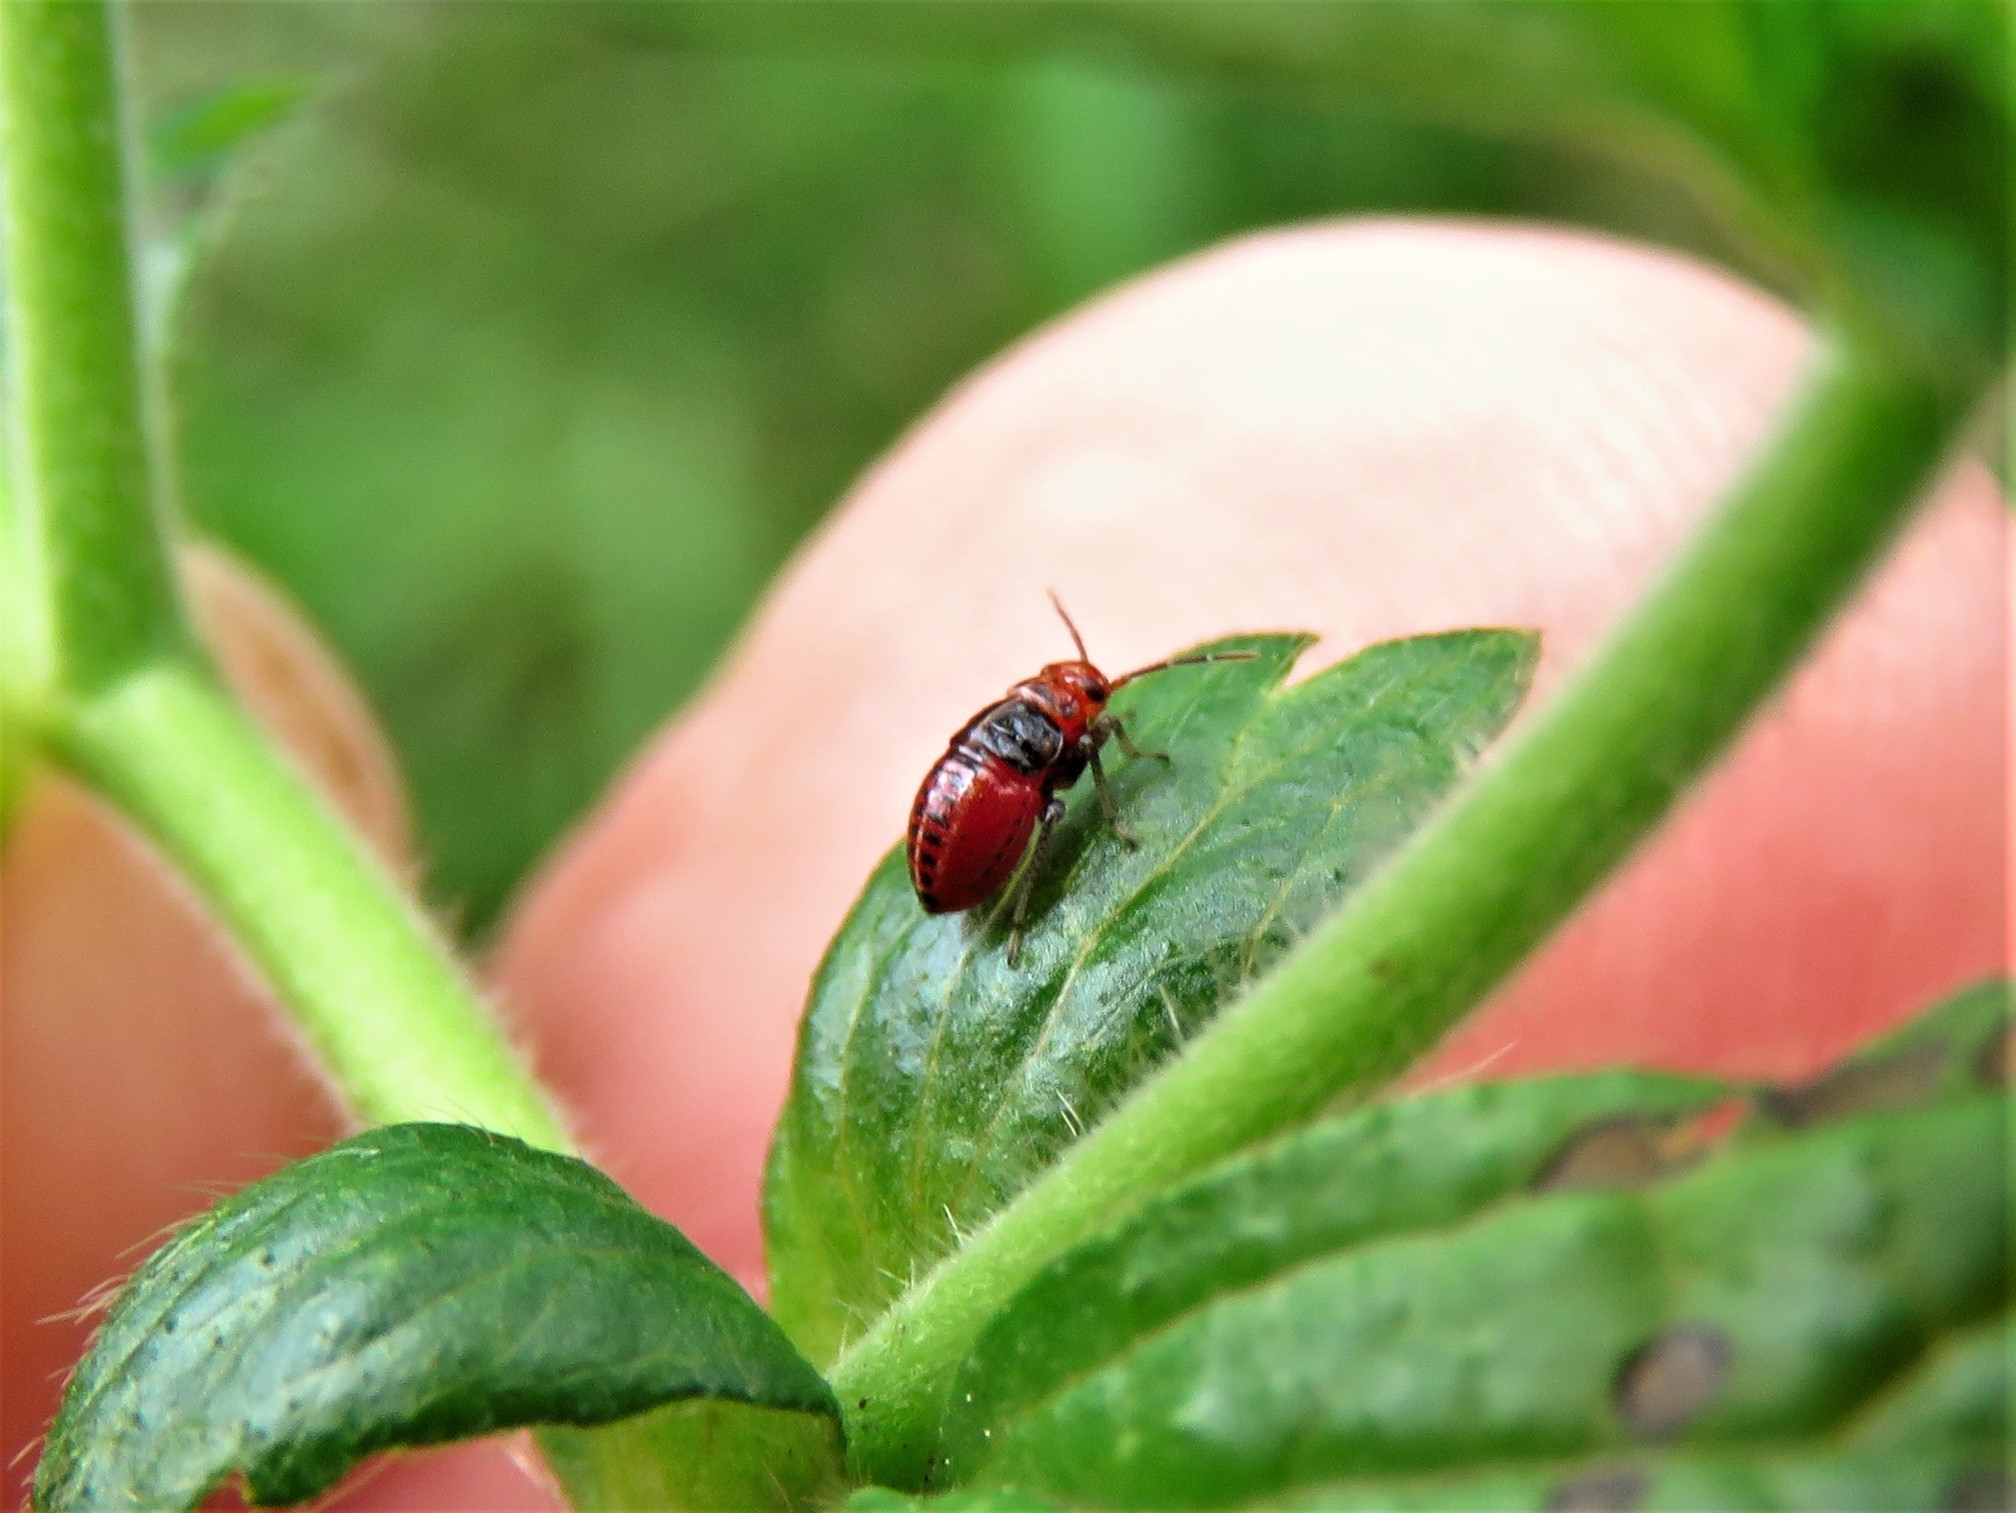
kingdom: Animalia
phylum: Arthropoda
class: Insecta
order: Hemiptera
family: Miridae
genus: Poecilocapsus
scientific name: Poecilocapsus lineatus
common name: Four-lined plant bug
